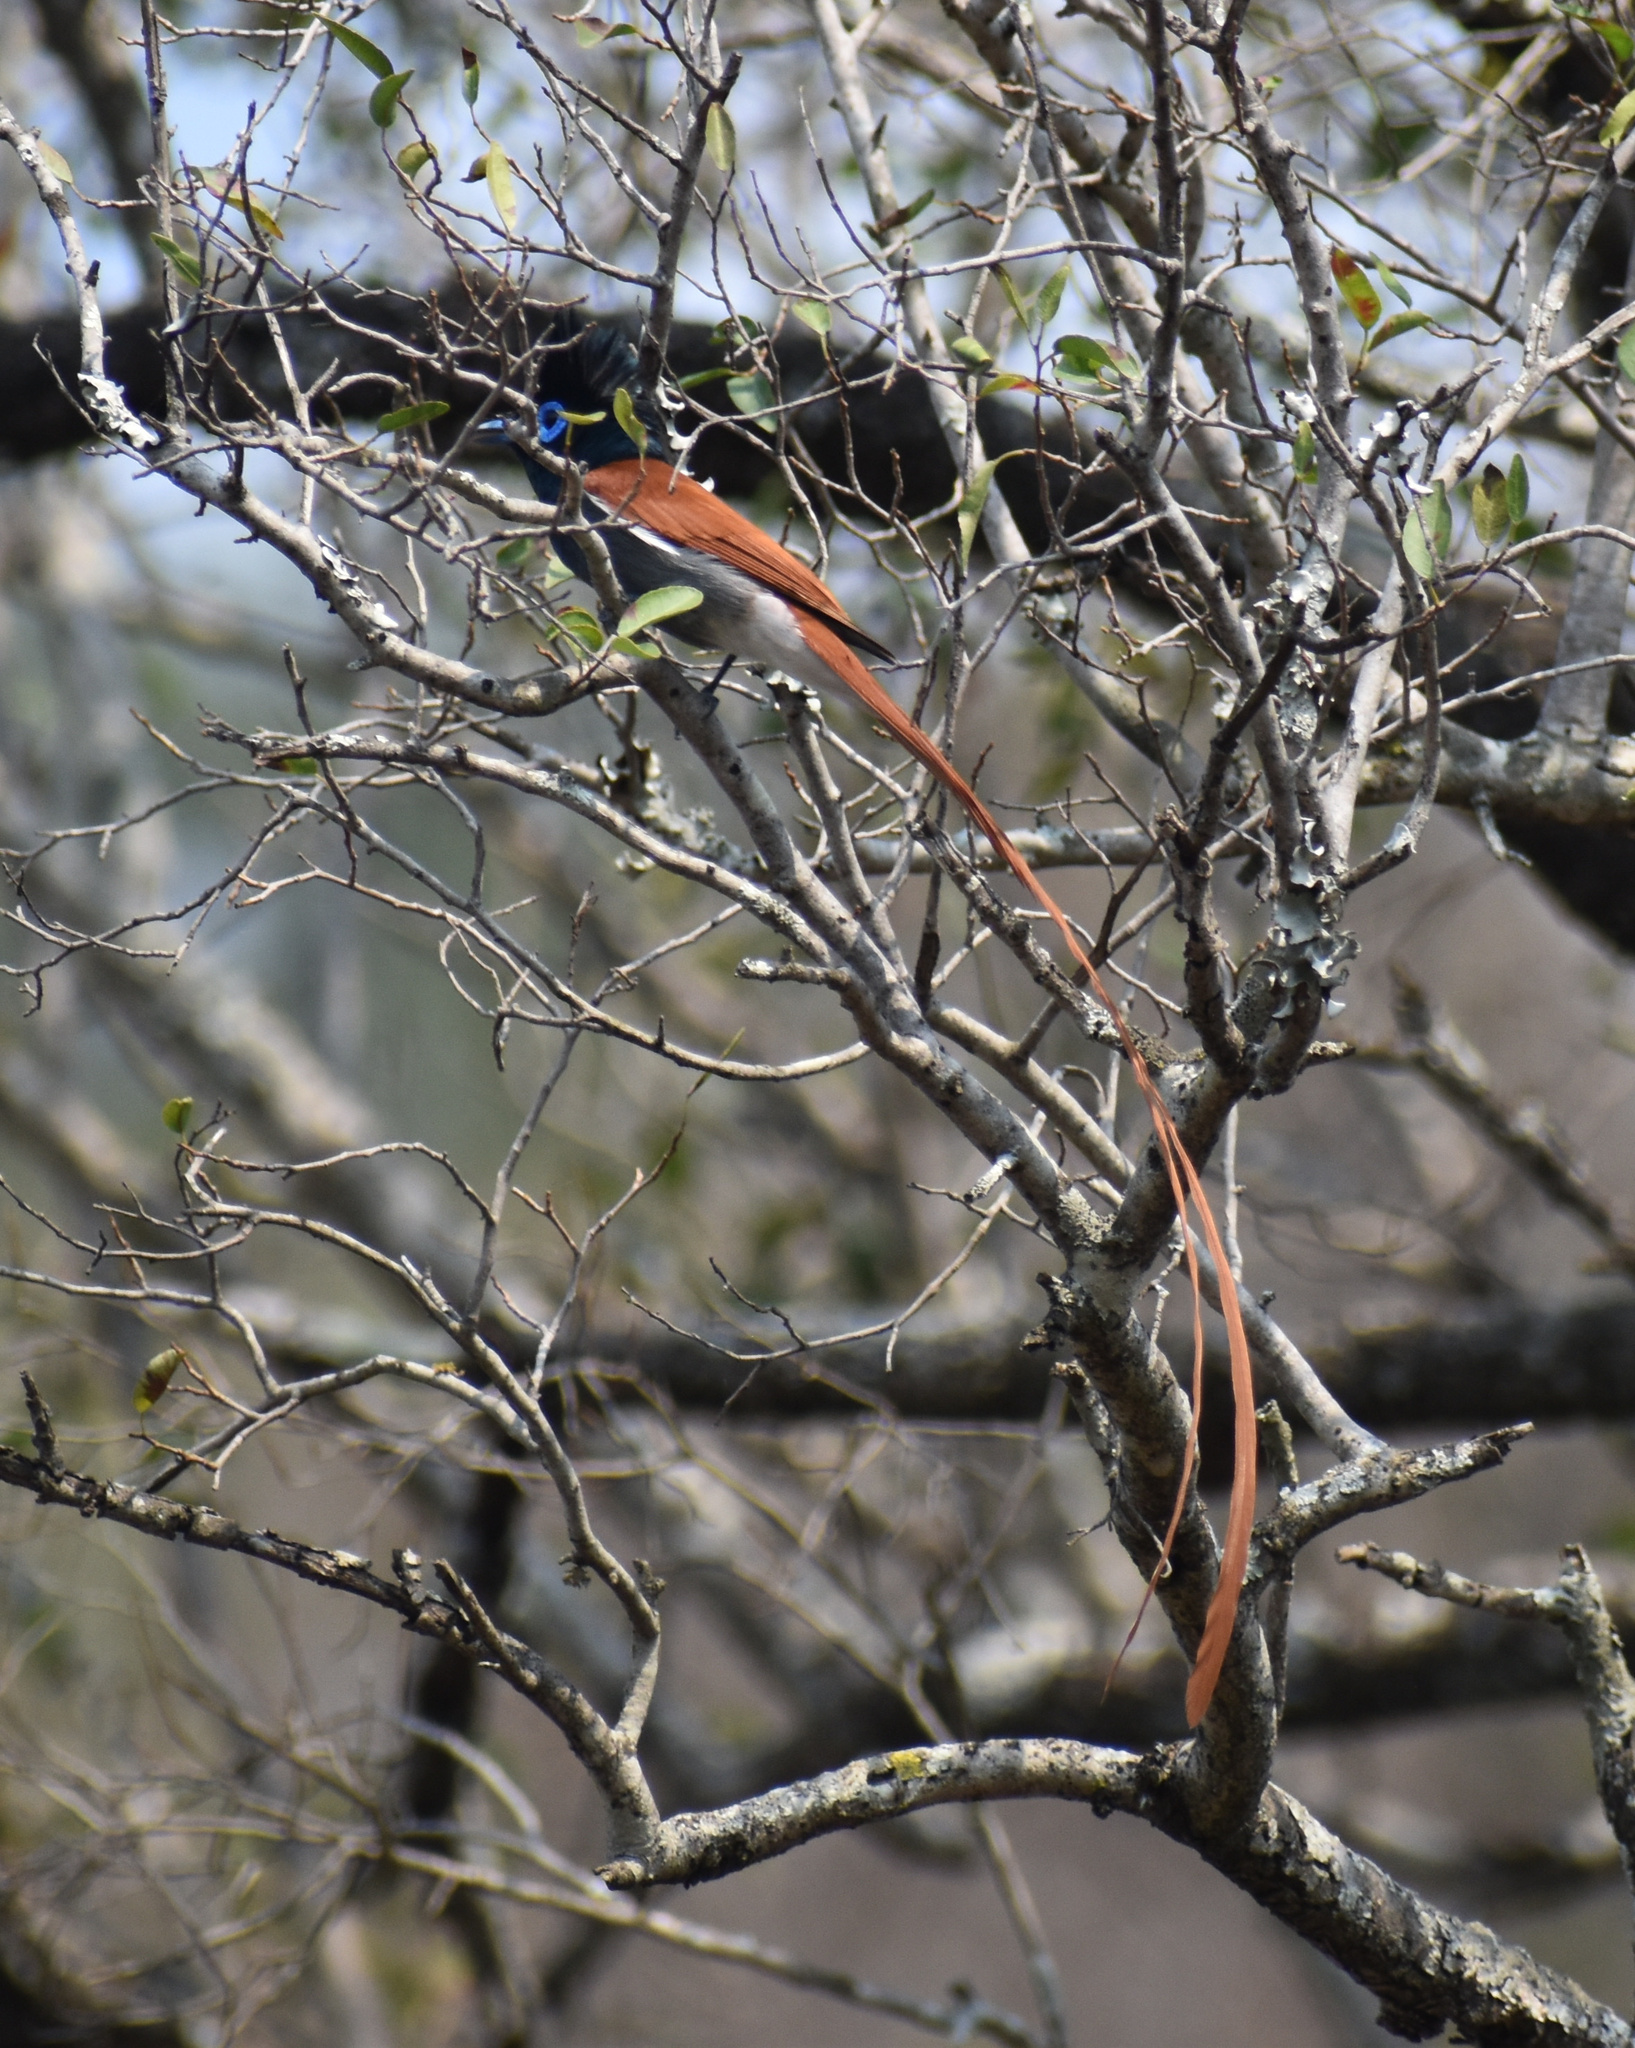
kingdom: Animalia
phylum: Chordata
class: Aves
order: Passeriformes
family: Monarchidae
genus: Terpsiphone
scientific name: Terpsiphone viridis
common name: African paradise flycatcher
